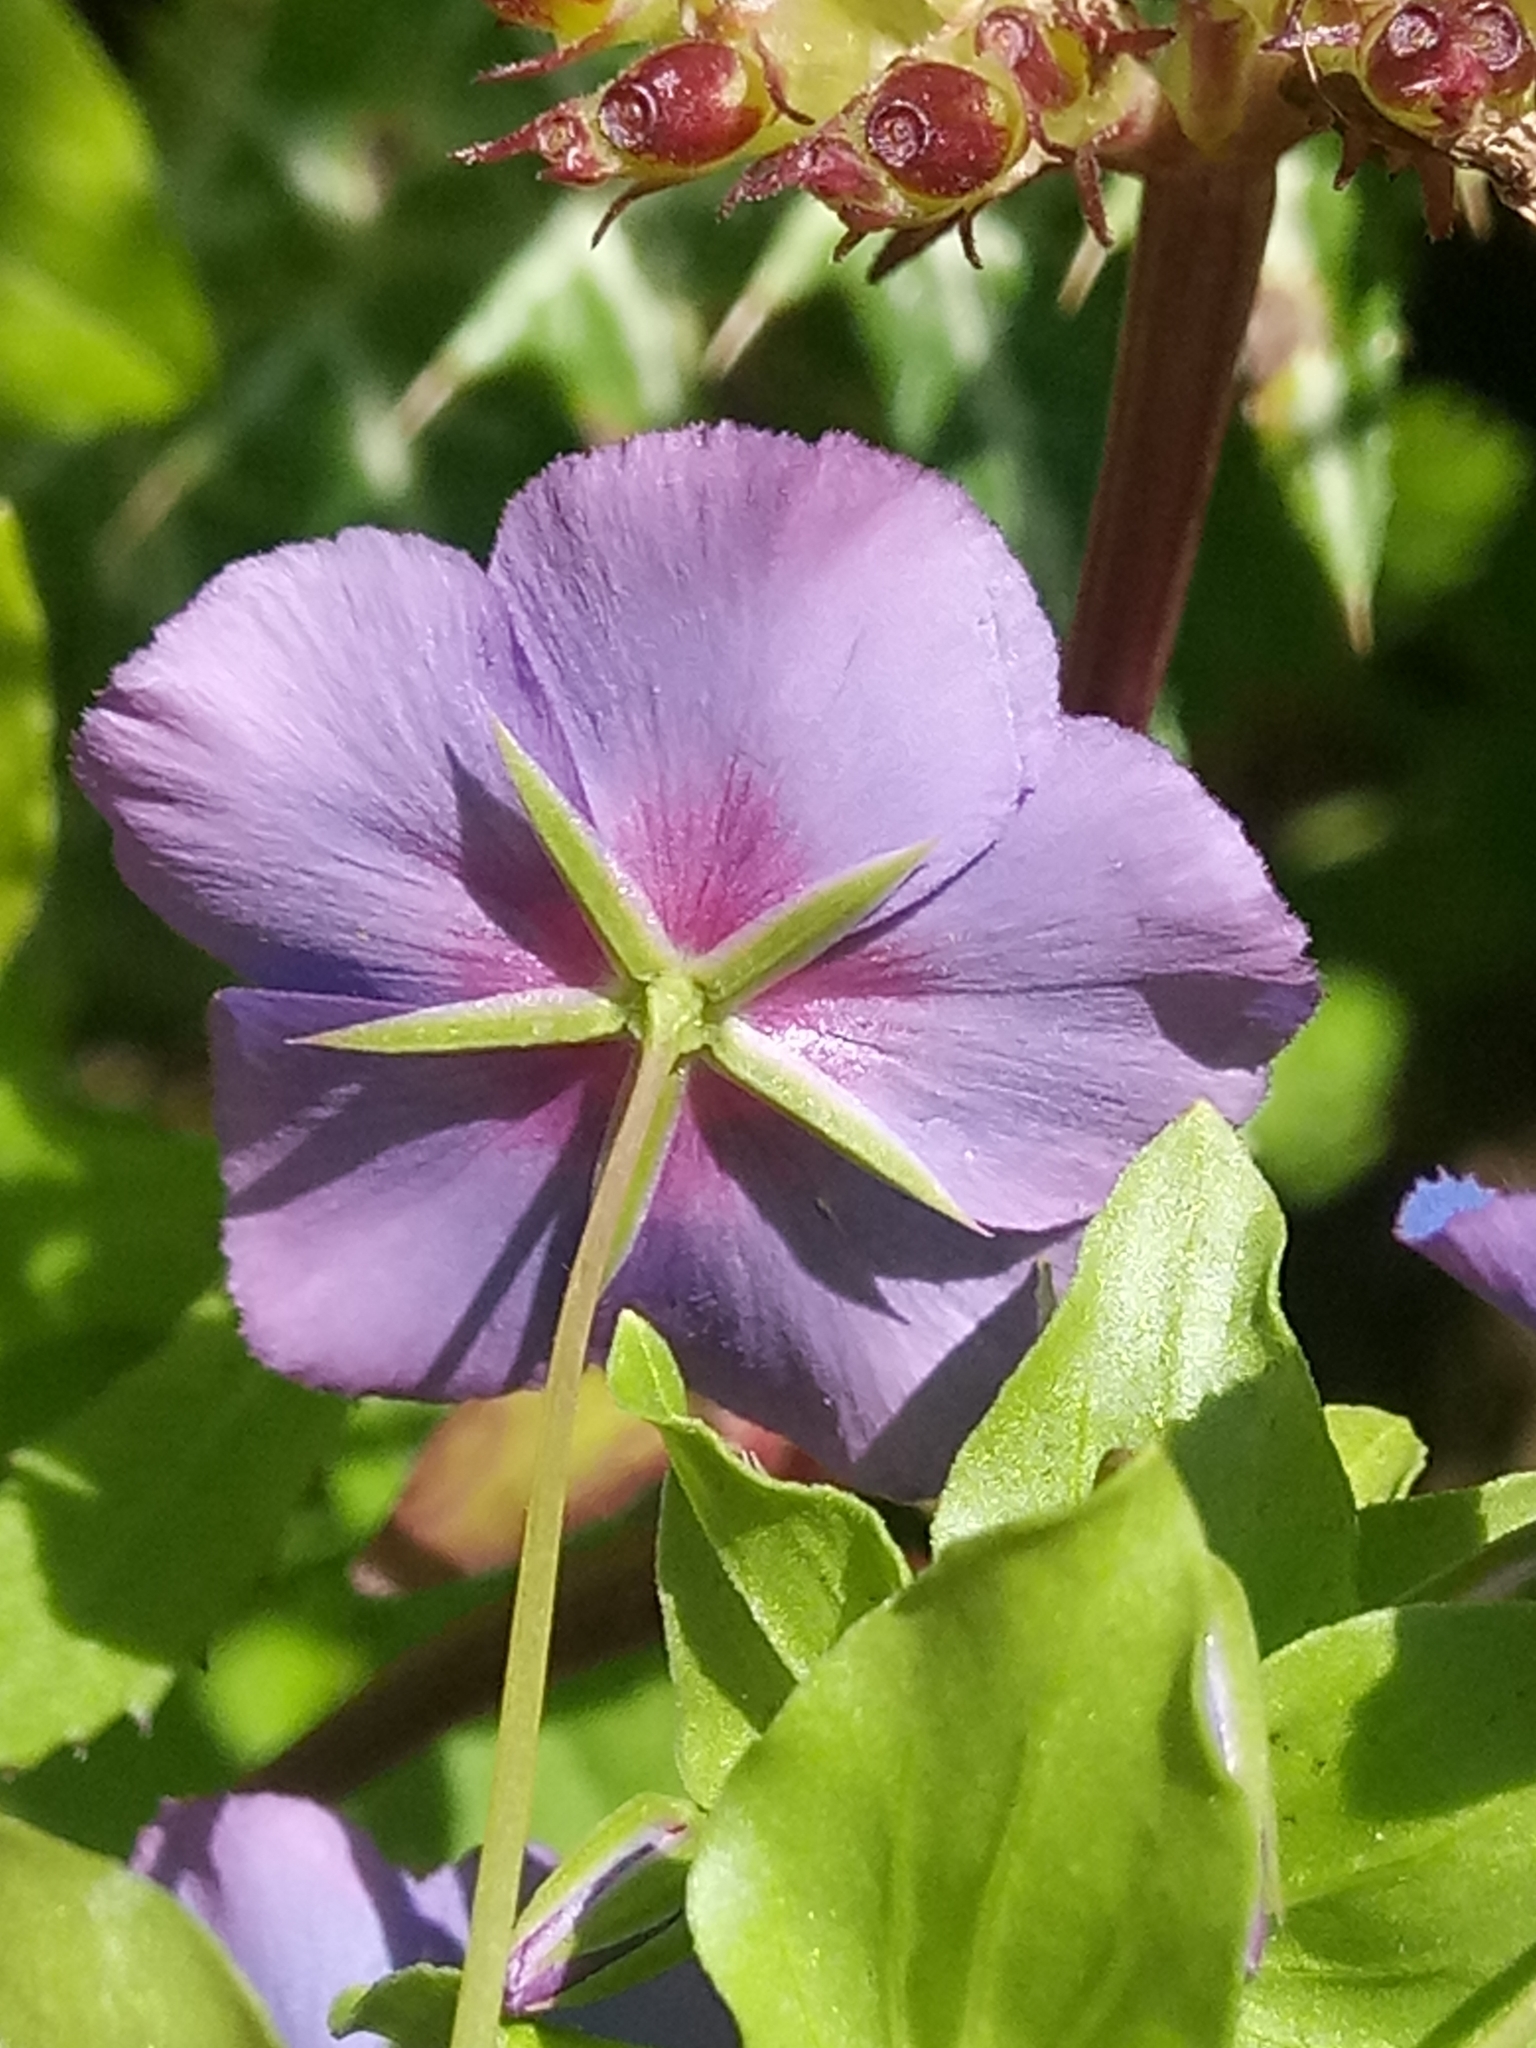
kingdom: Plantae
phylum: Tracheophyta
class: Magnoliopsida
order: Ericales
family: Primulaceae
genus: Lysimachia
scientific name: Lysimachia arvensis
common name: Scarlet pimpernel
